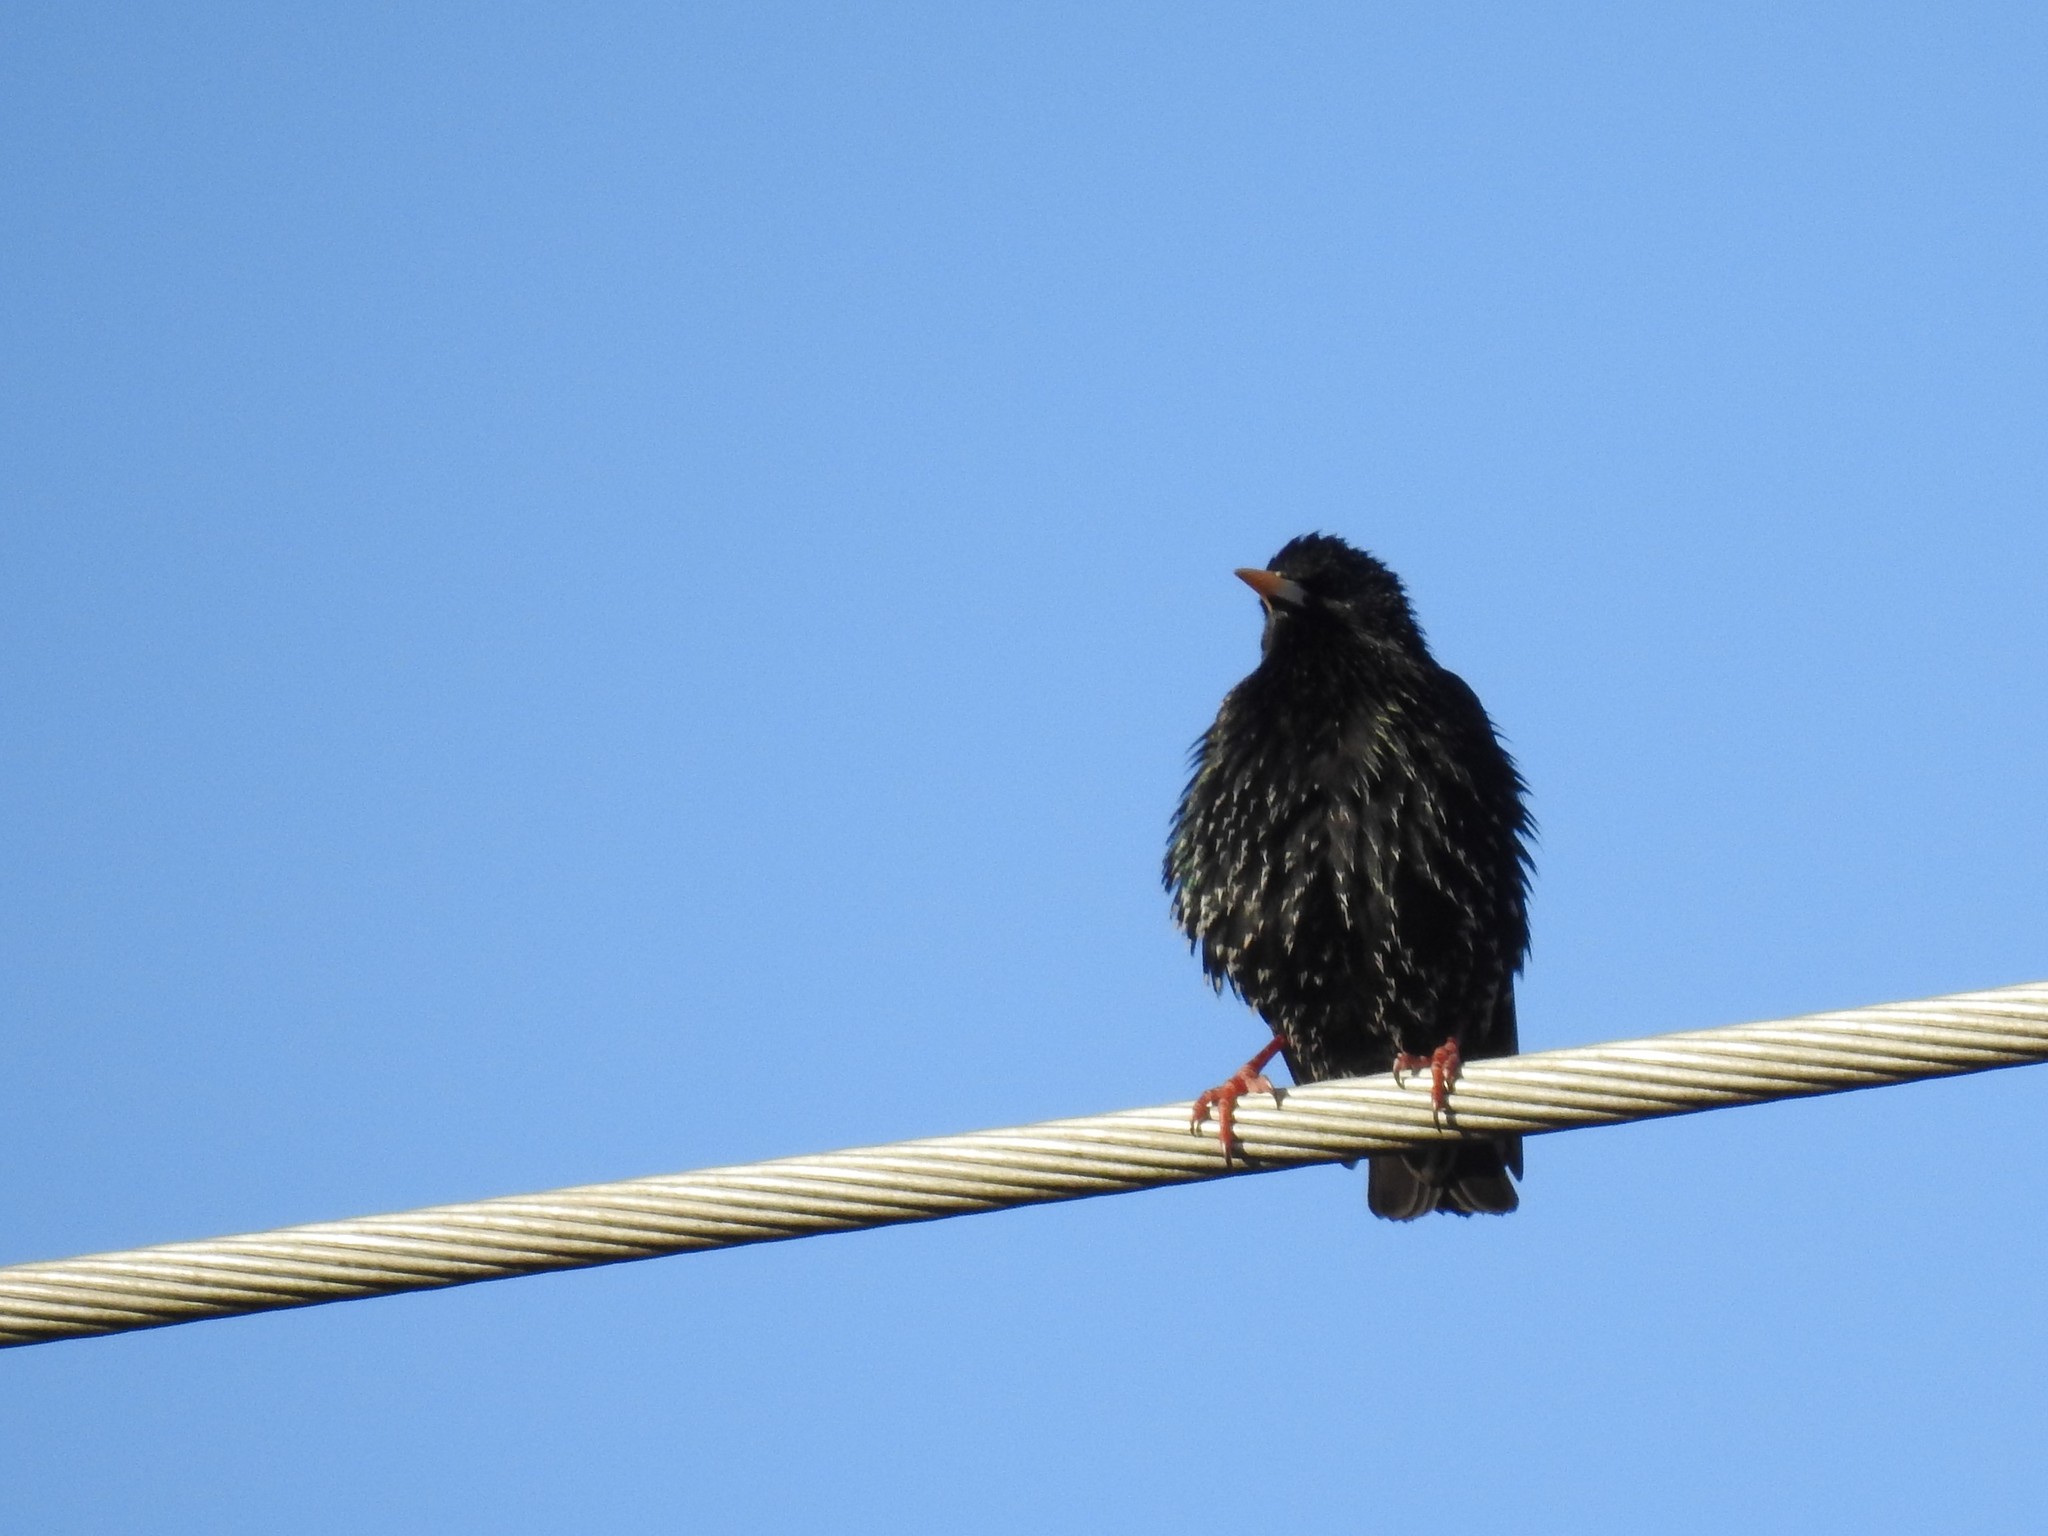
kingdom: Animalia
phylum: Chordata
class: Aves
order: Passeriformes
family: Sturnidae
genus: Sturnus
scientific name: Sturnus vulgaris
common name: Common starling
